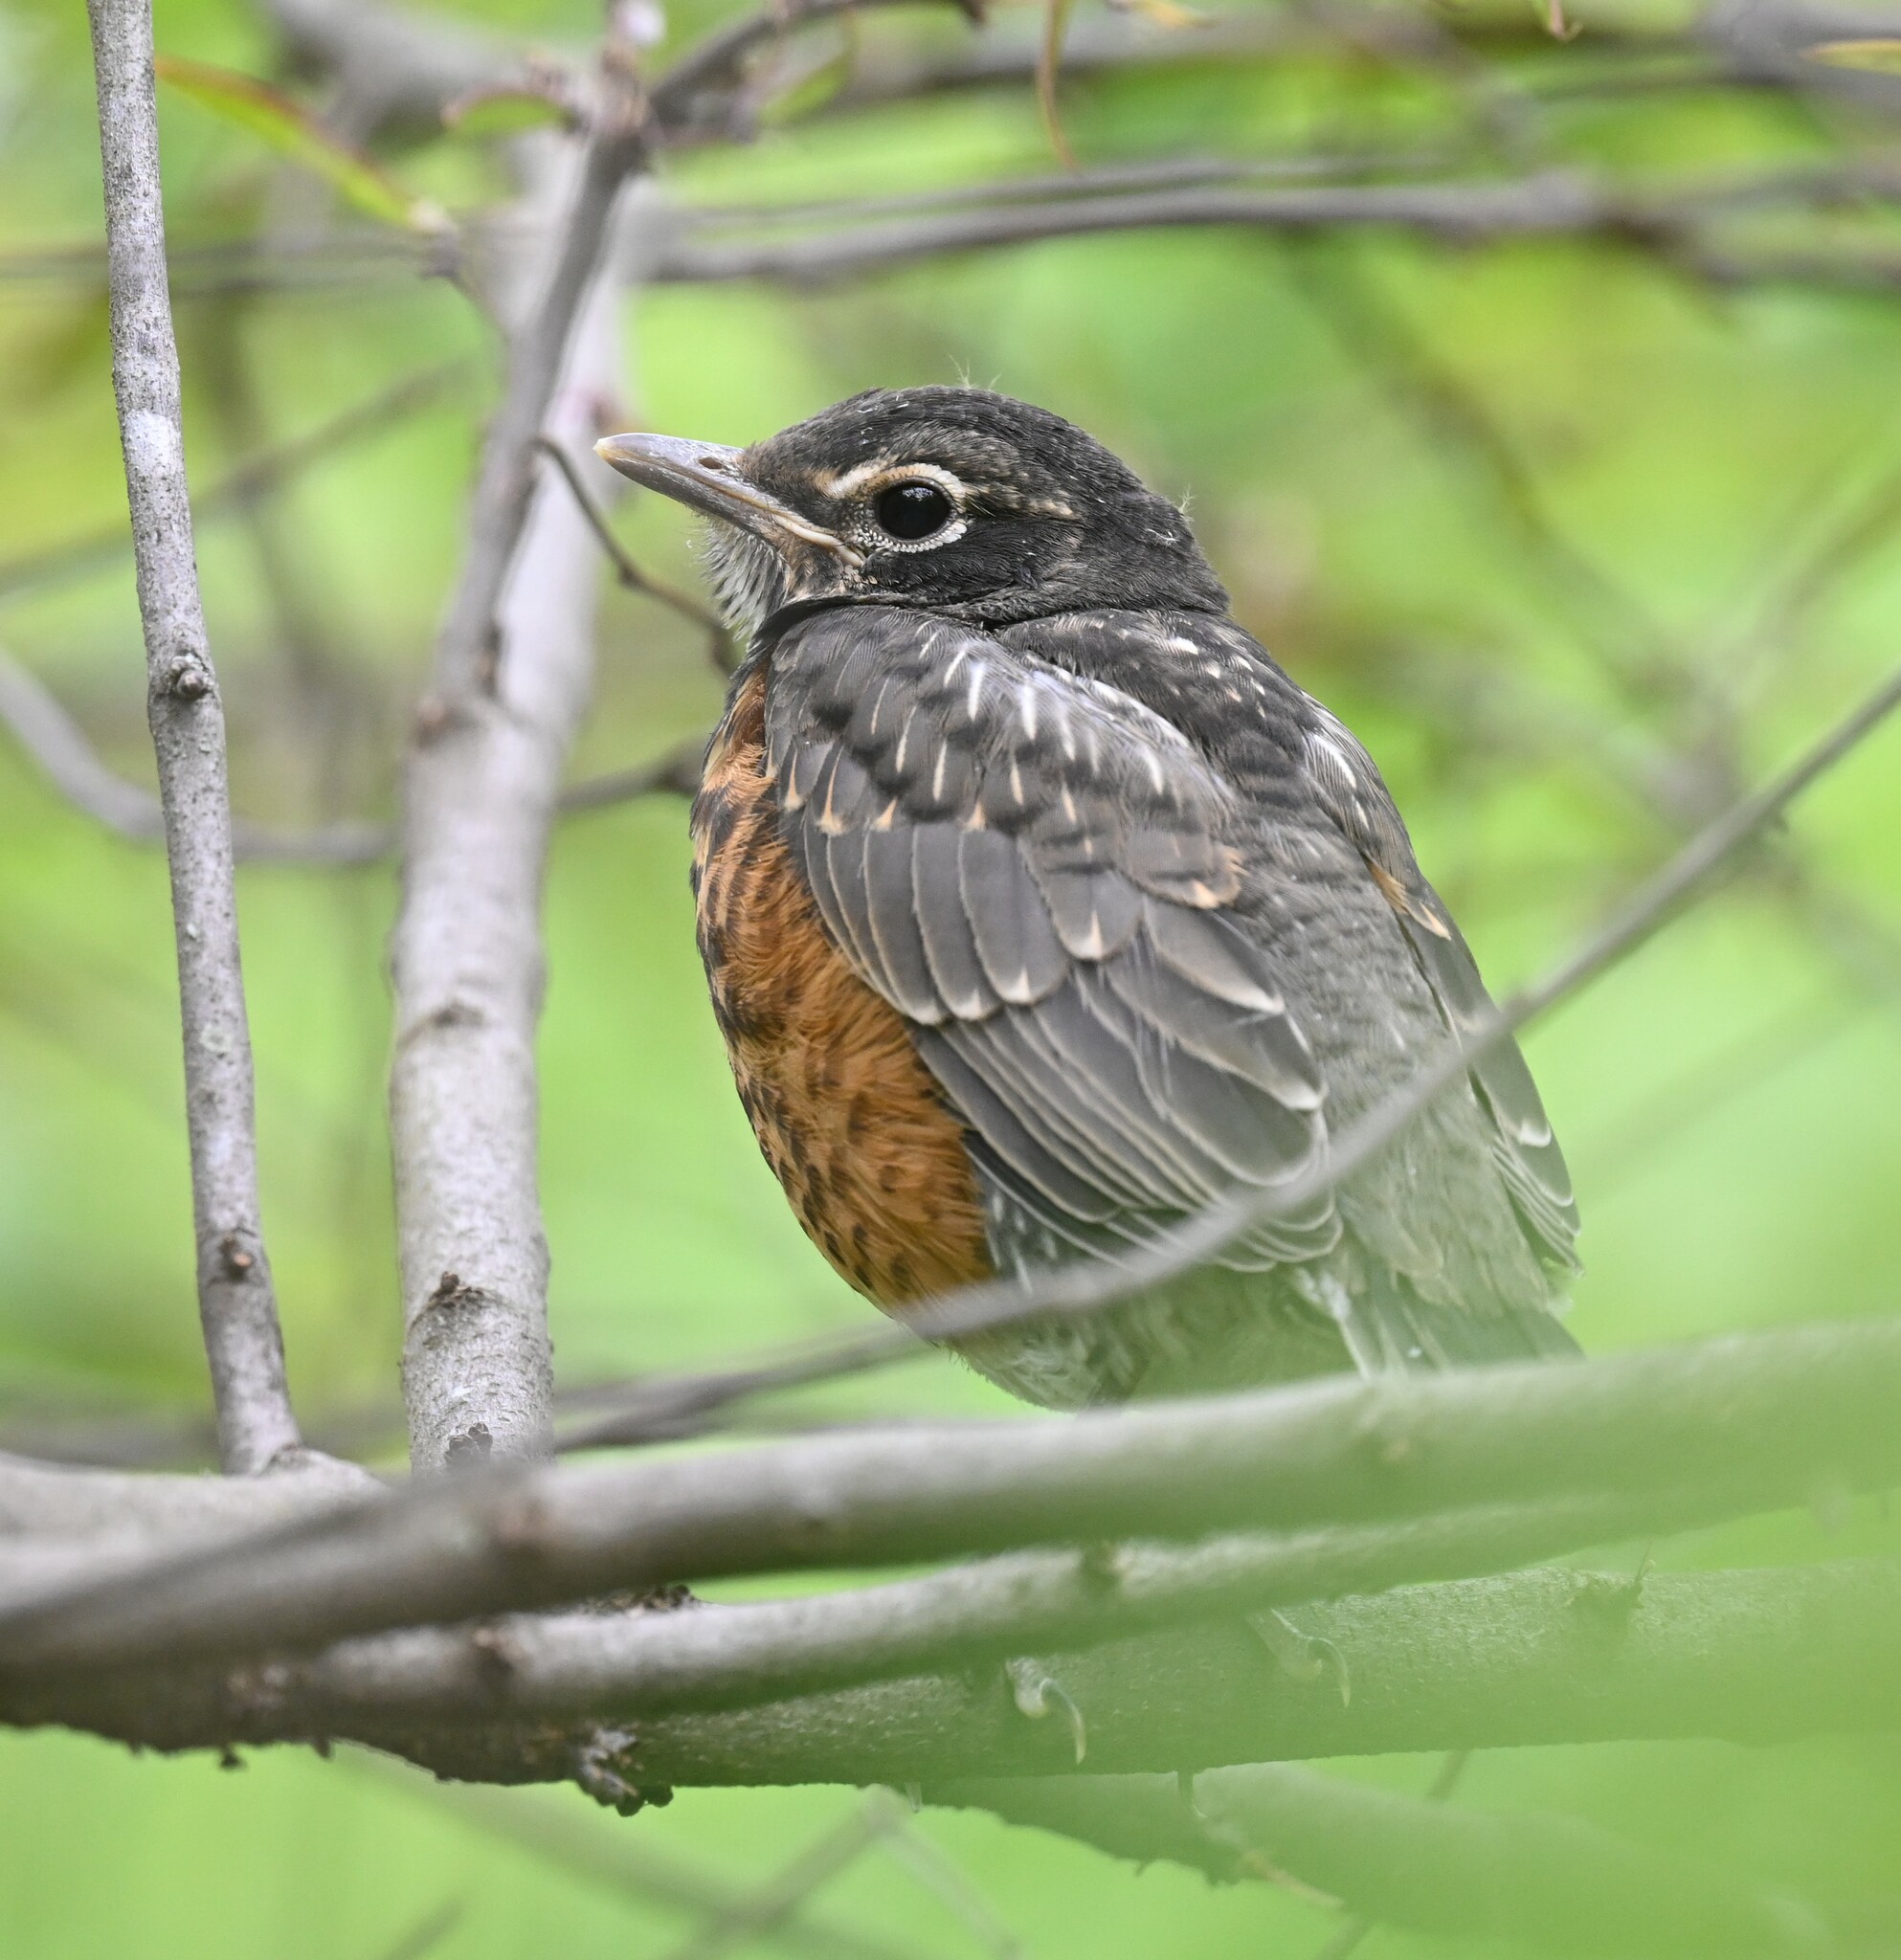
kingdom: Animalia
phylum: Chordata
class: Aves
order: Passeriformes
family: Turdidae
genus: Turdus
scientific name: Turdus migratorius
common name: American robin
